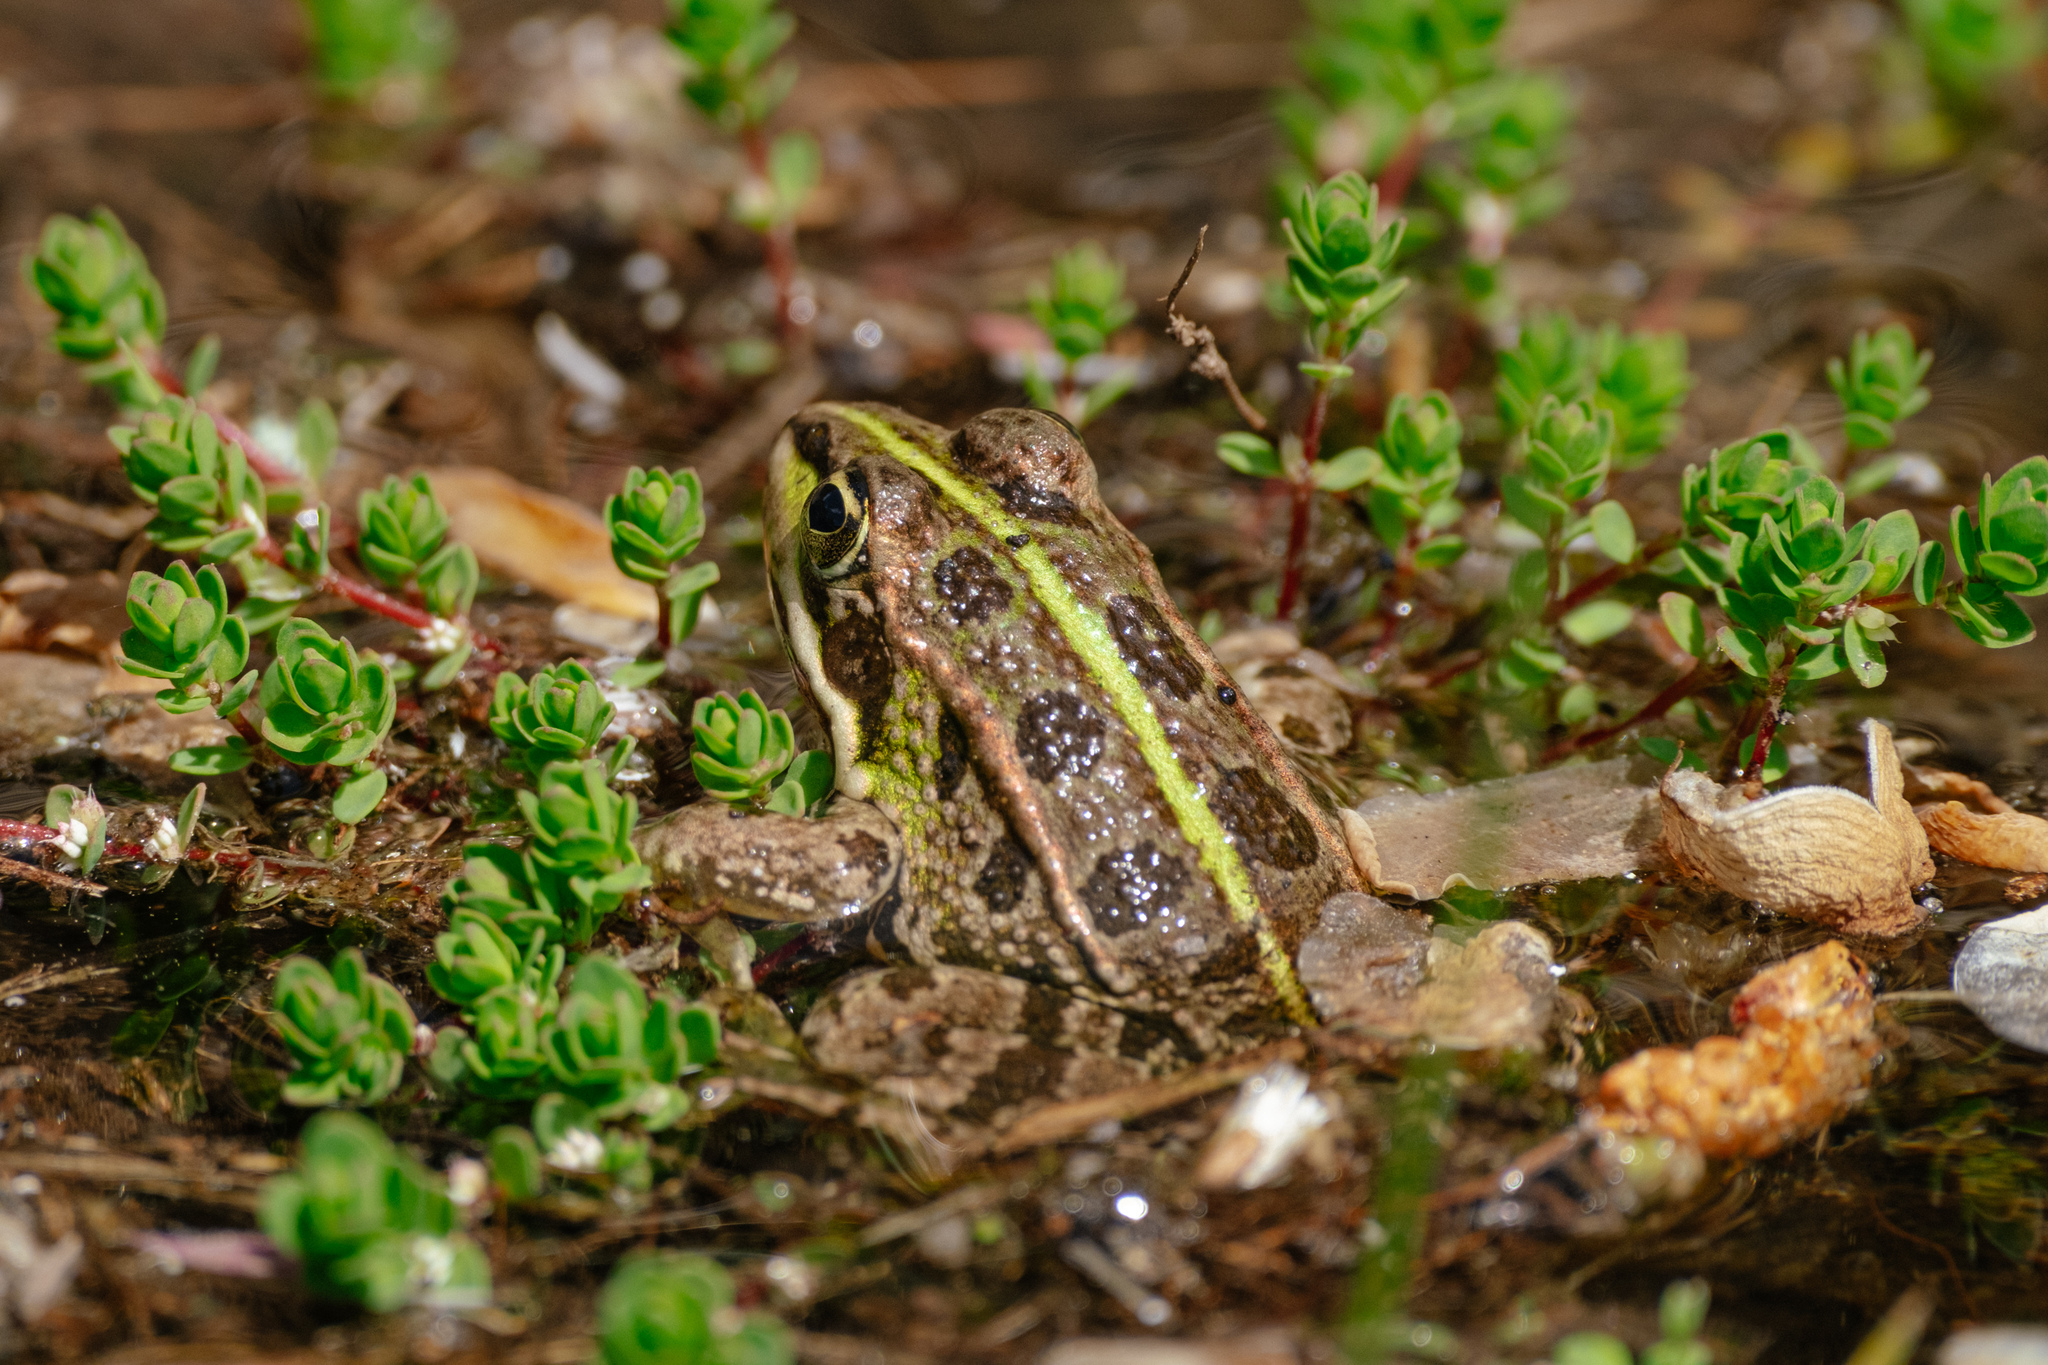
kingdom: Animalia
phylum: Chordata
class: Amphibia
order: Anura
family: Ranidae
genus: Pelophylax
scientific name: Pelophylax perezi
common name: Perez's frog
